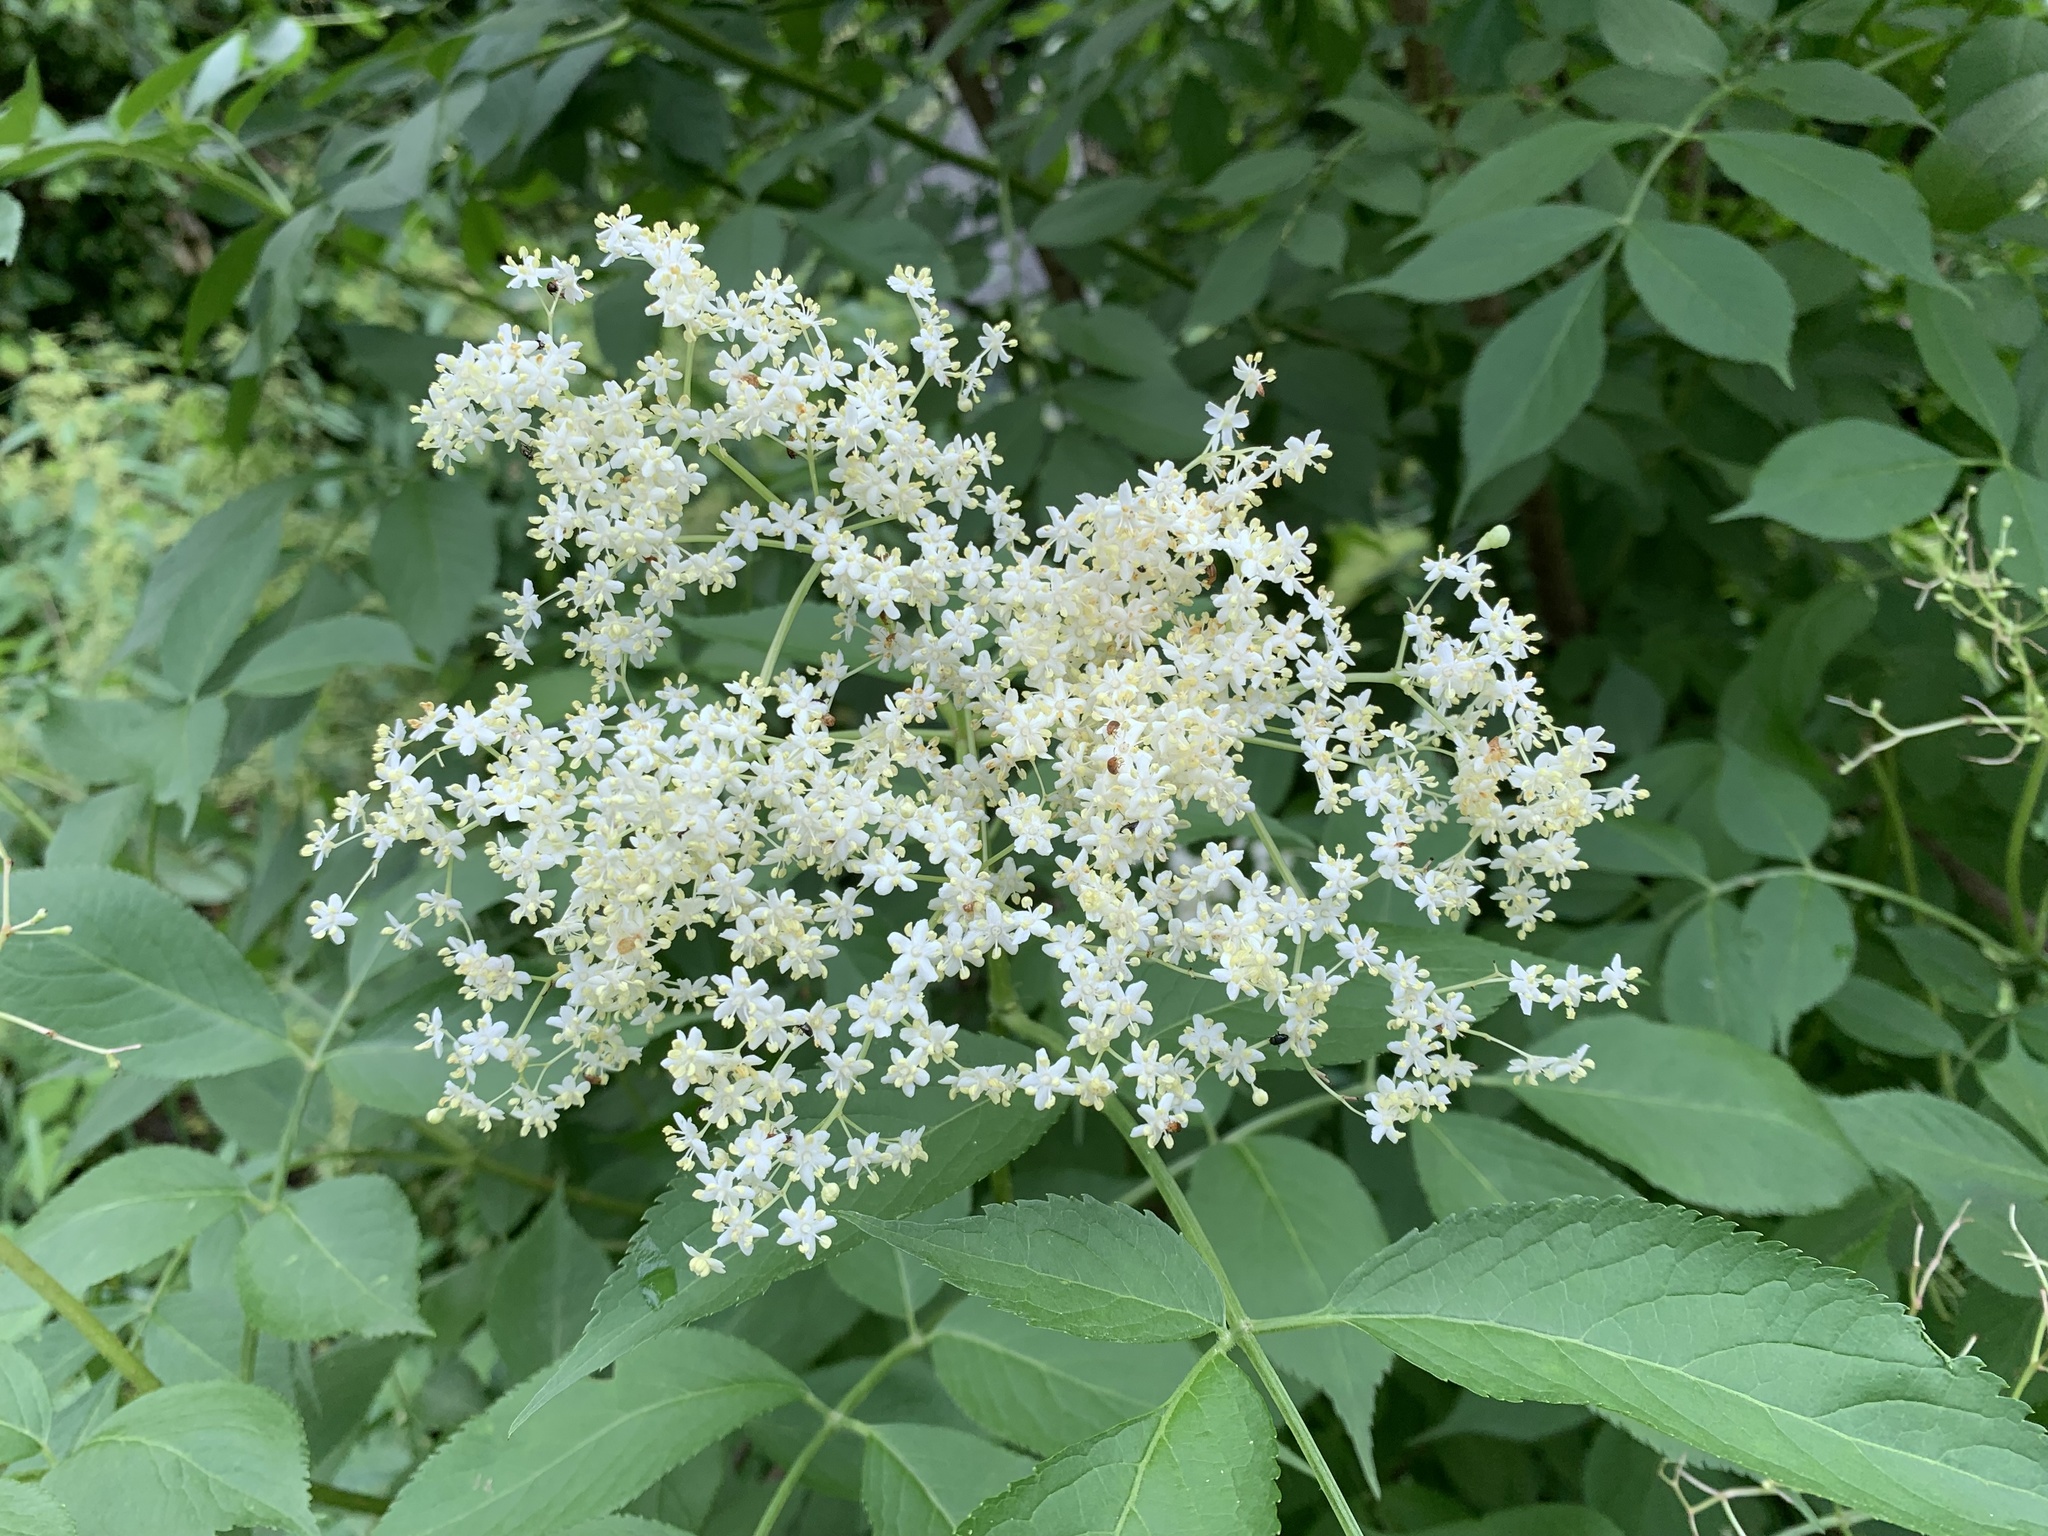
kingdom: Plantae
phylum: Tracheophyta
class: Magnoliopsida
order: Dipsacales
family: Viburnaceae
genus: Sambucus
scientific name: Sambucus nigra
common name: Elder
